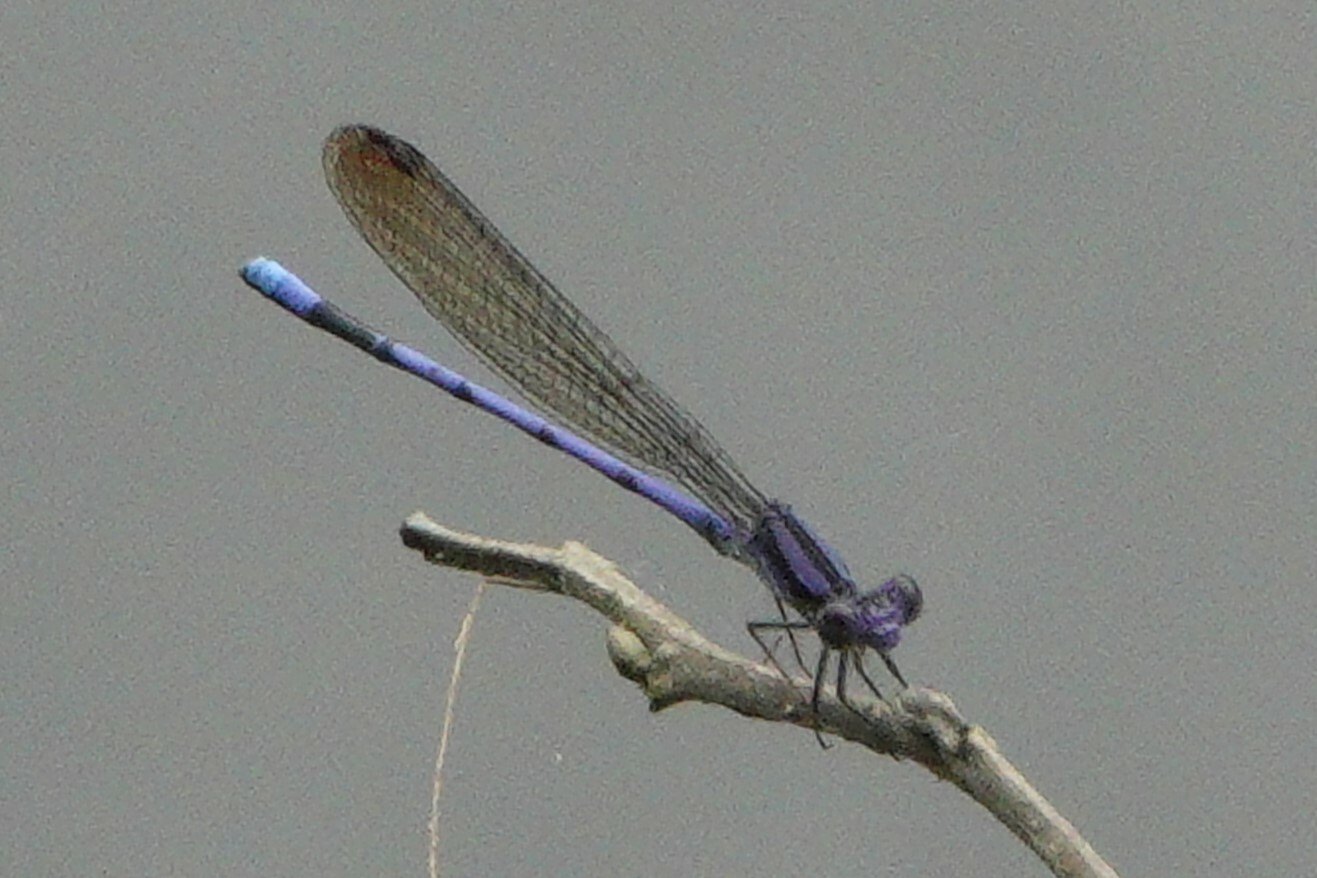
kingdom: Animalia
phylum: Arthropoda
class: Insecta
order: Odonata
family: Coenagrionidae
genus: Argia
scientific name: Argia fumipennis
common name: Variable dancer
